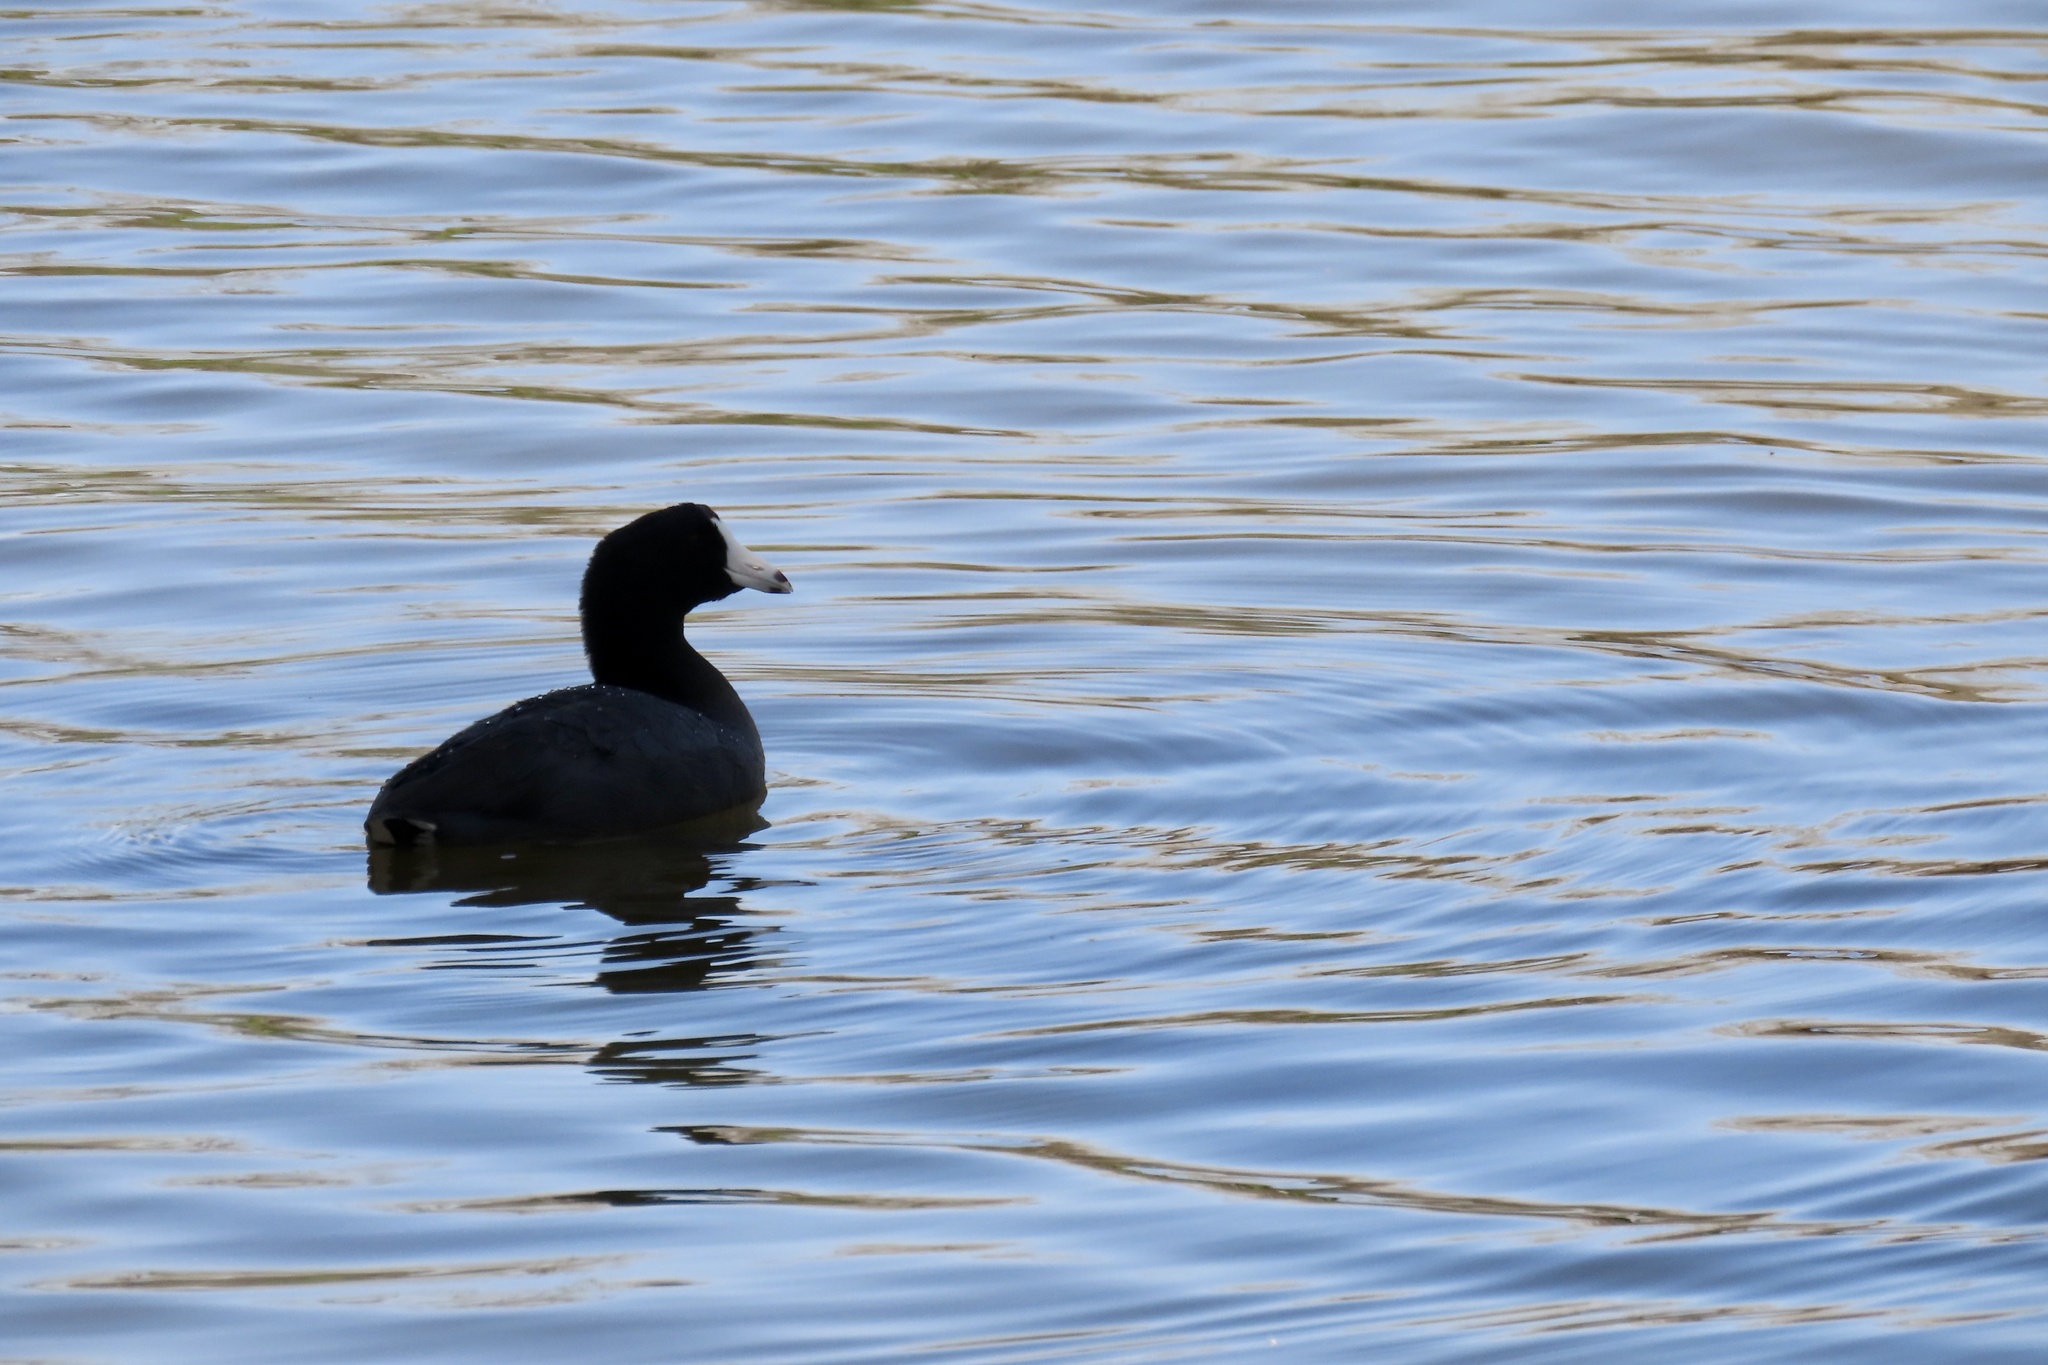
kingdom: Animalia
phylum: Chordata
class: Aves
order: Gruiformes
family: Rallidae
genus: Fulica
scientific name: Fulica americana
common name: American coot
